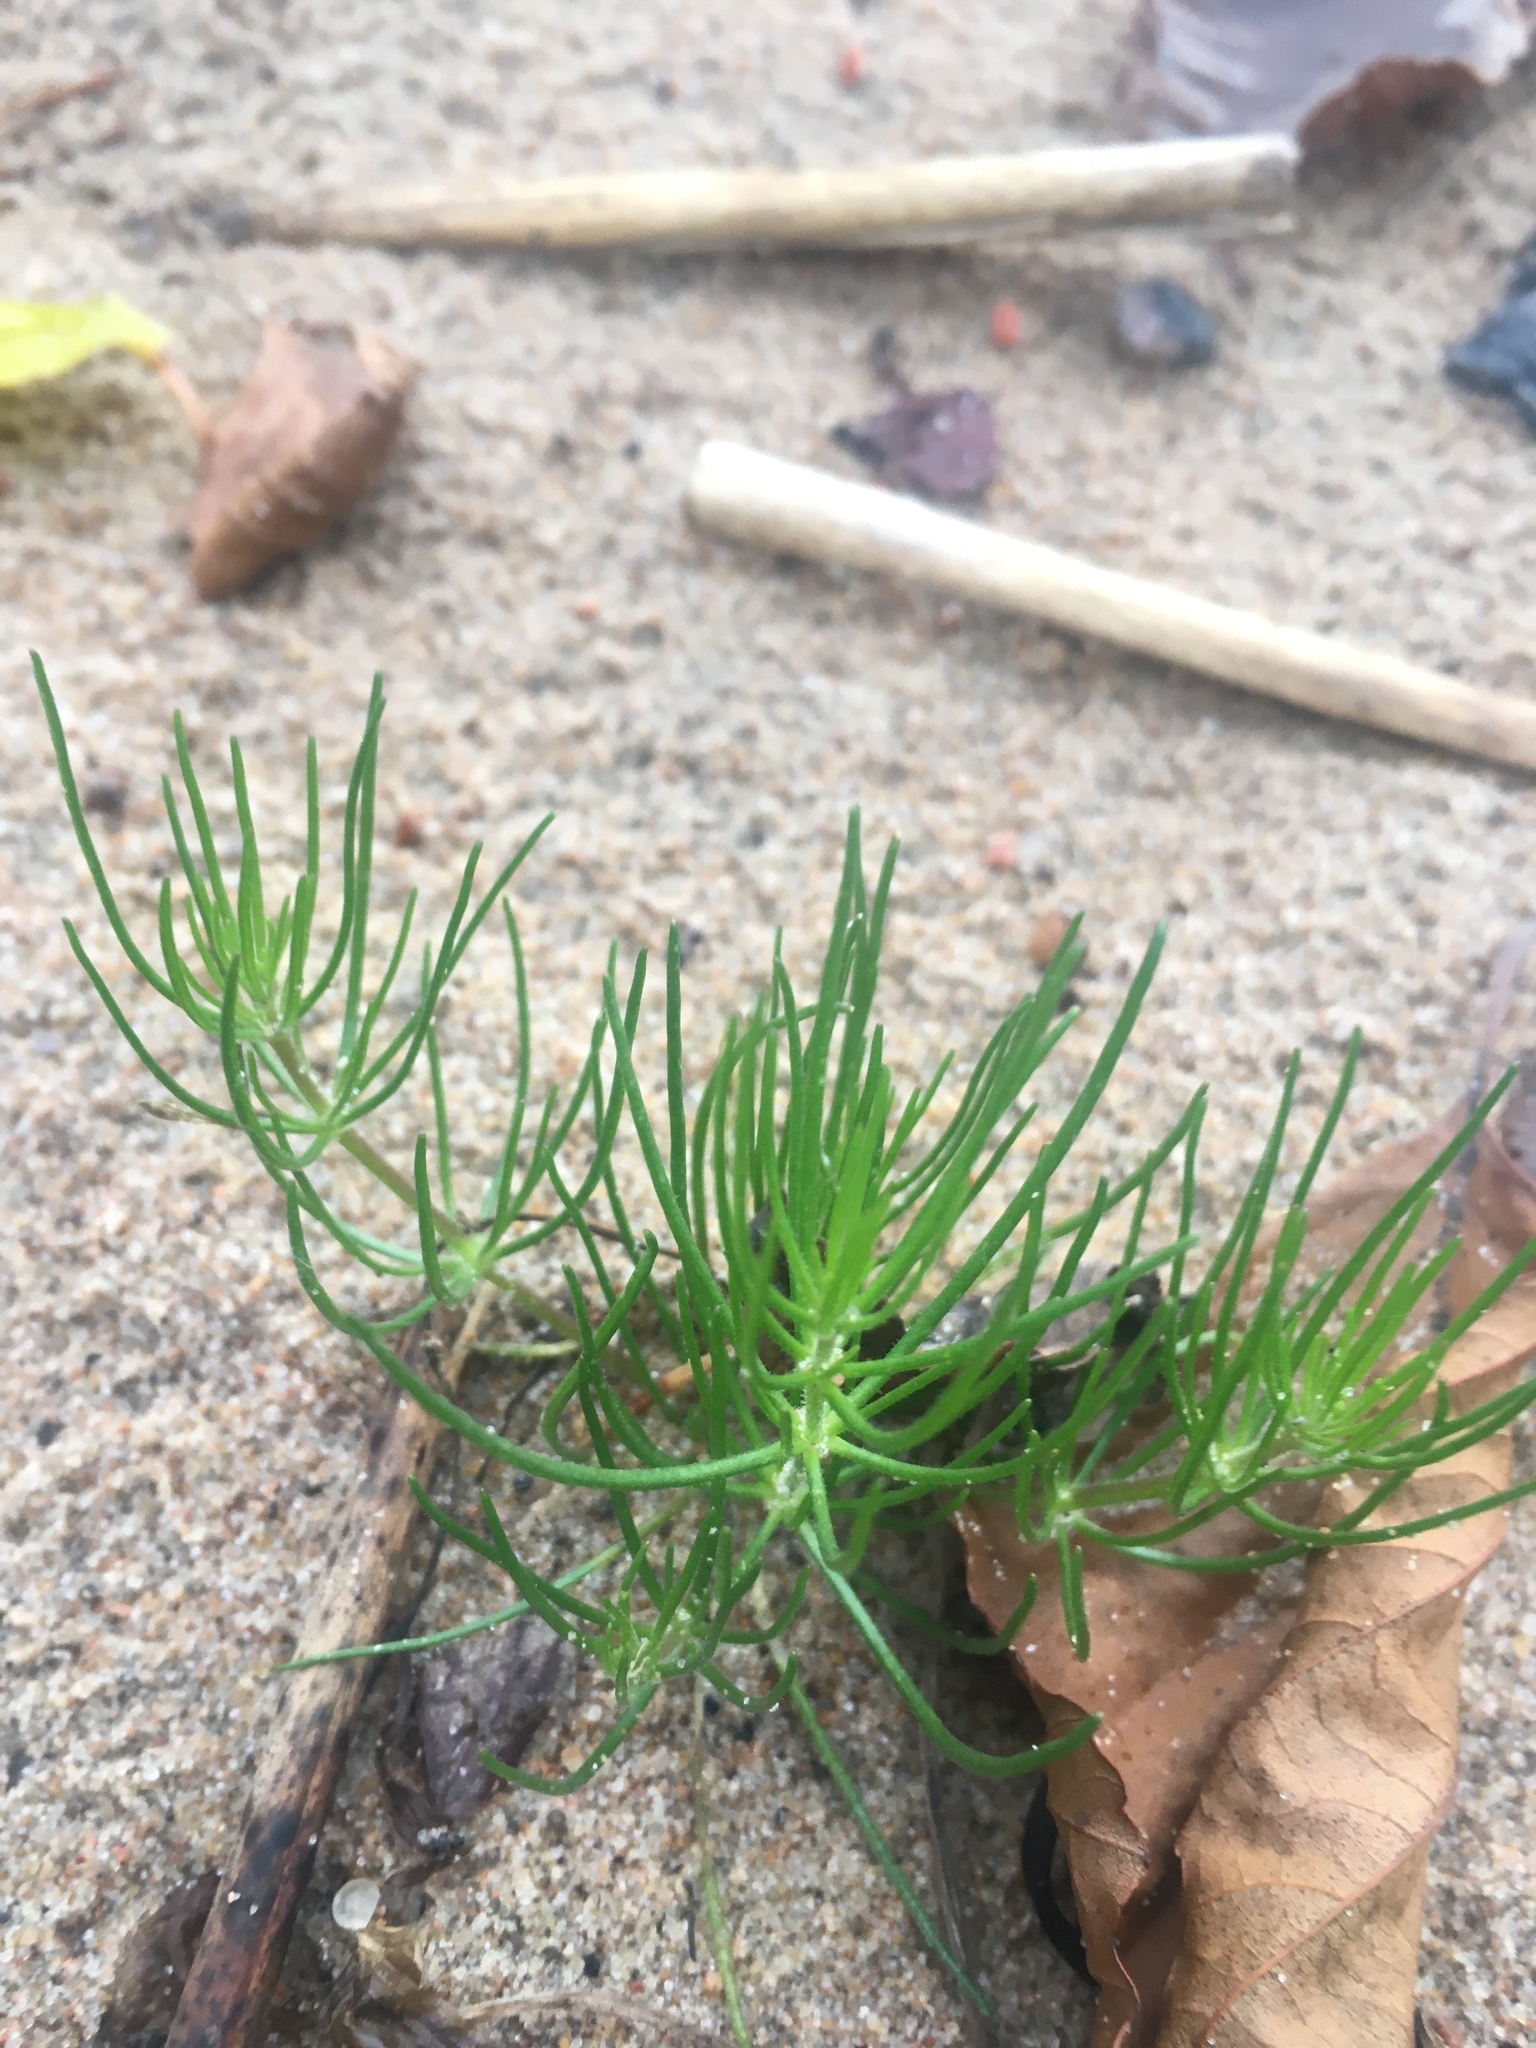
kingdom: Plantae
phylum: Tracheophyta
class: Magnoliopsida
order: Caryophyllales
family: Caryophyllaceae
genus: Spergula
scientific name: Spergula arvensis
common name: Corn spurrey
